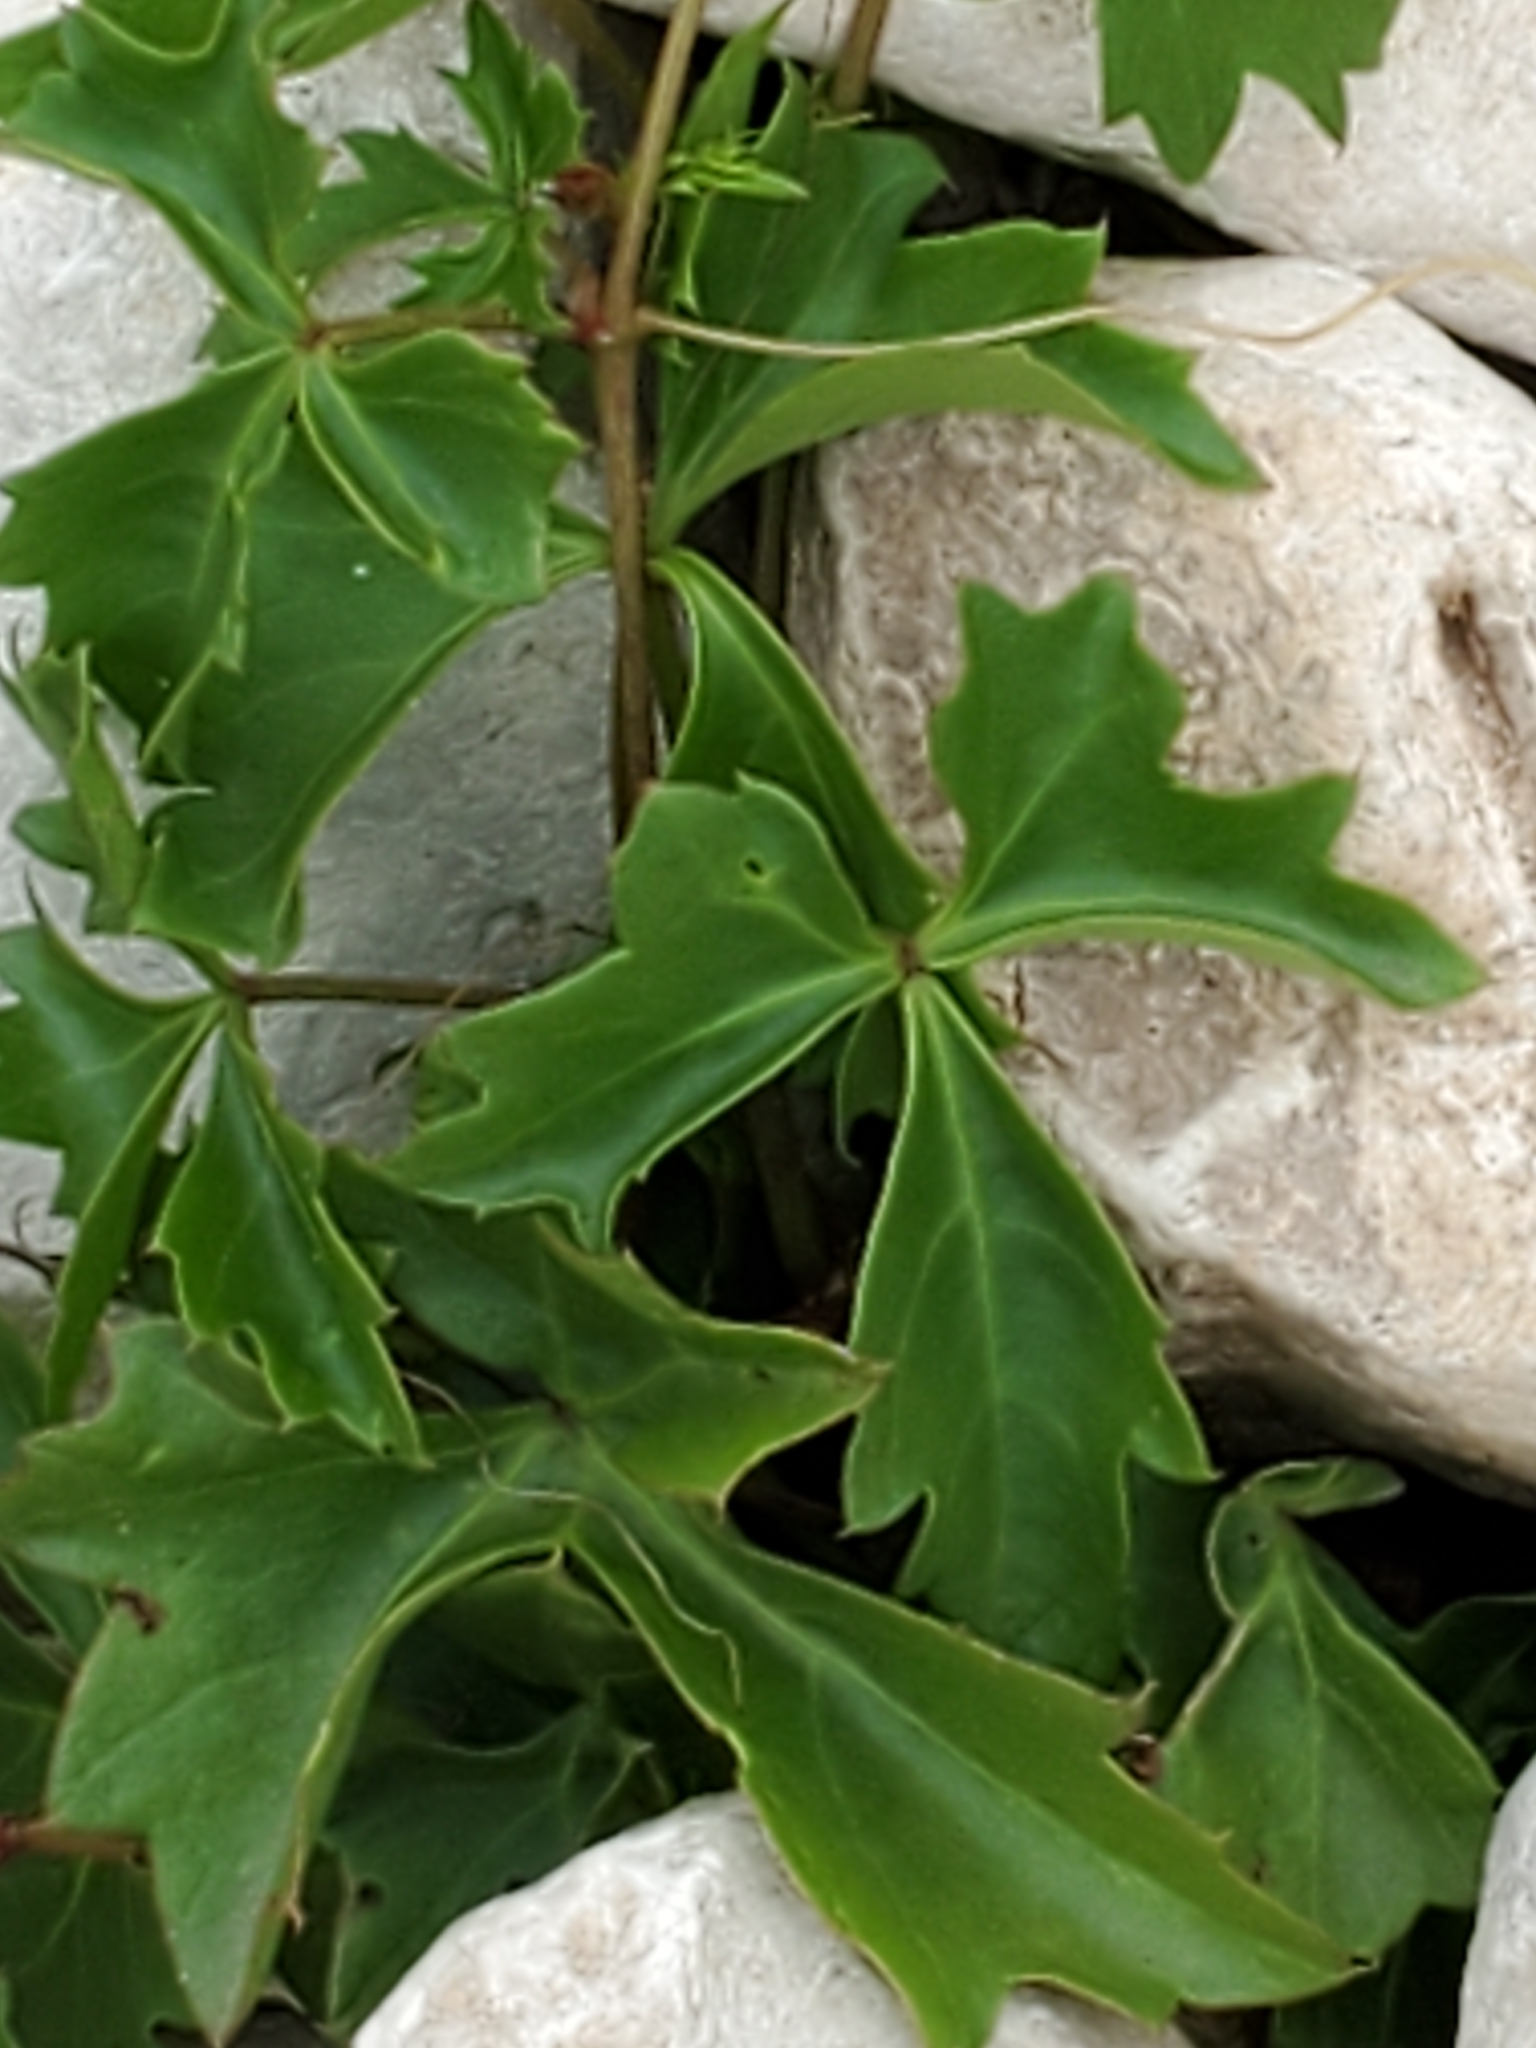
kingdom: Plantae
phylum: Tracheophyta
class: Magnoliopsida
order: Vitales
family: Vitaceae
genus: Cissus
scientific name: Cissus trifoliata
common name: Vine-sorrel
